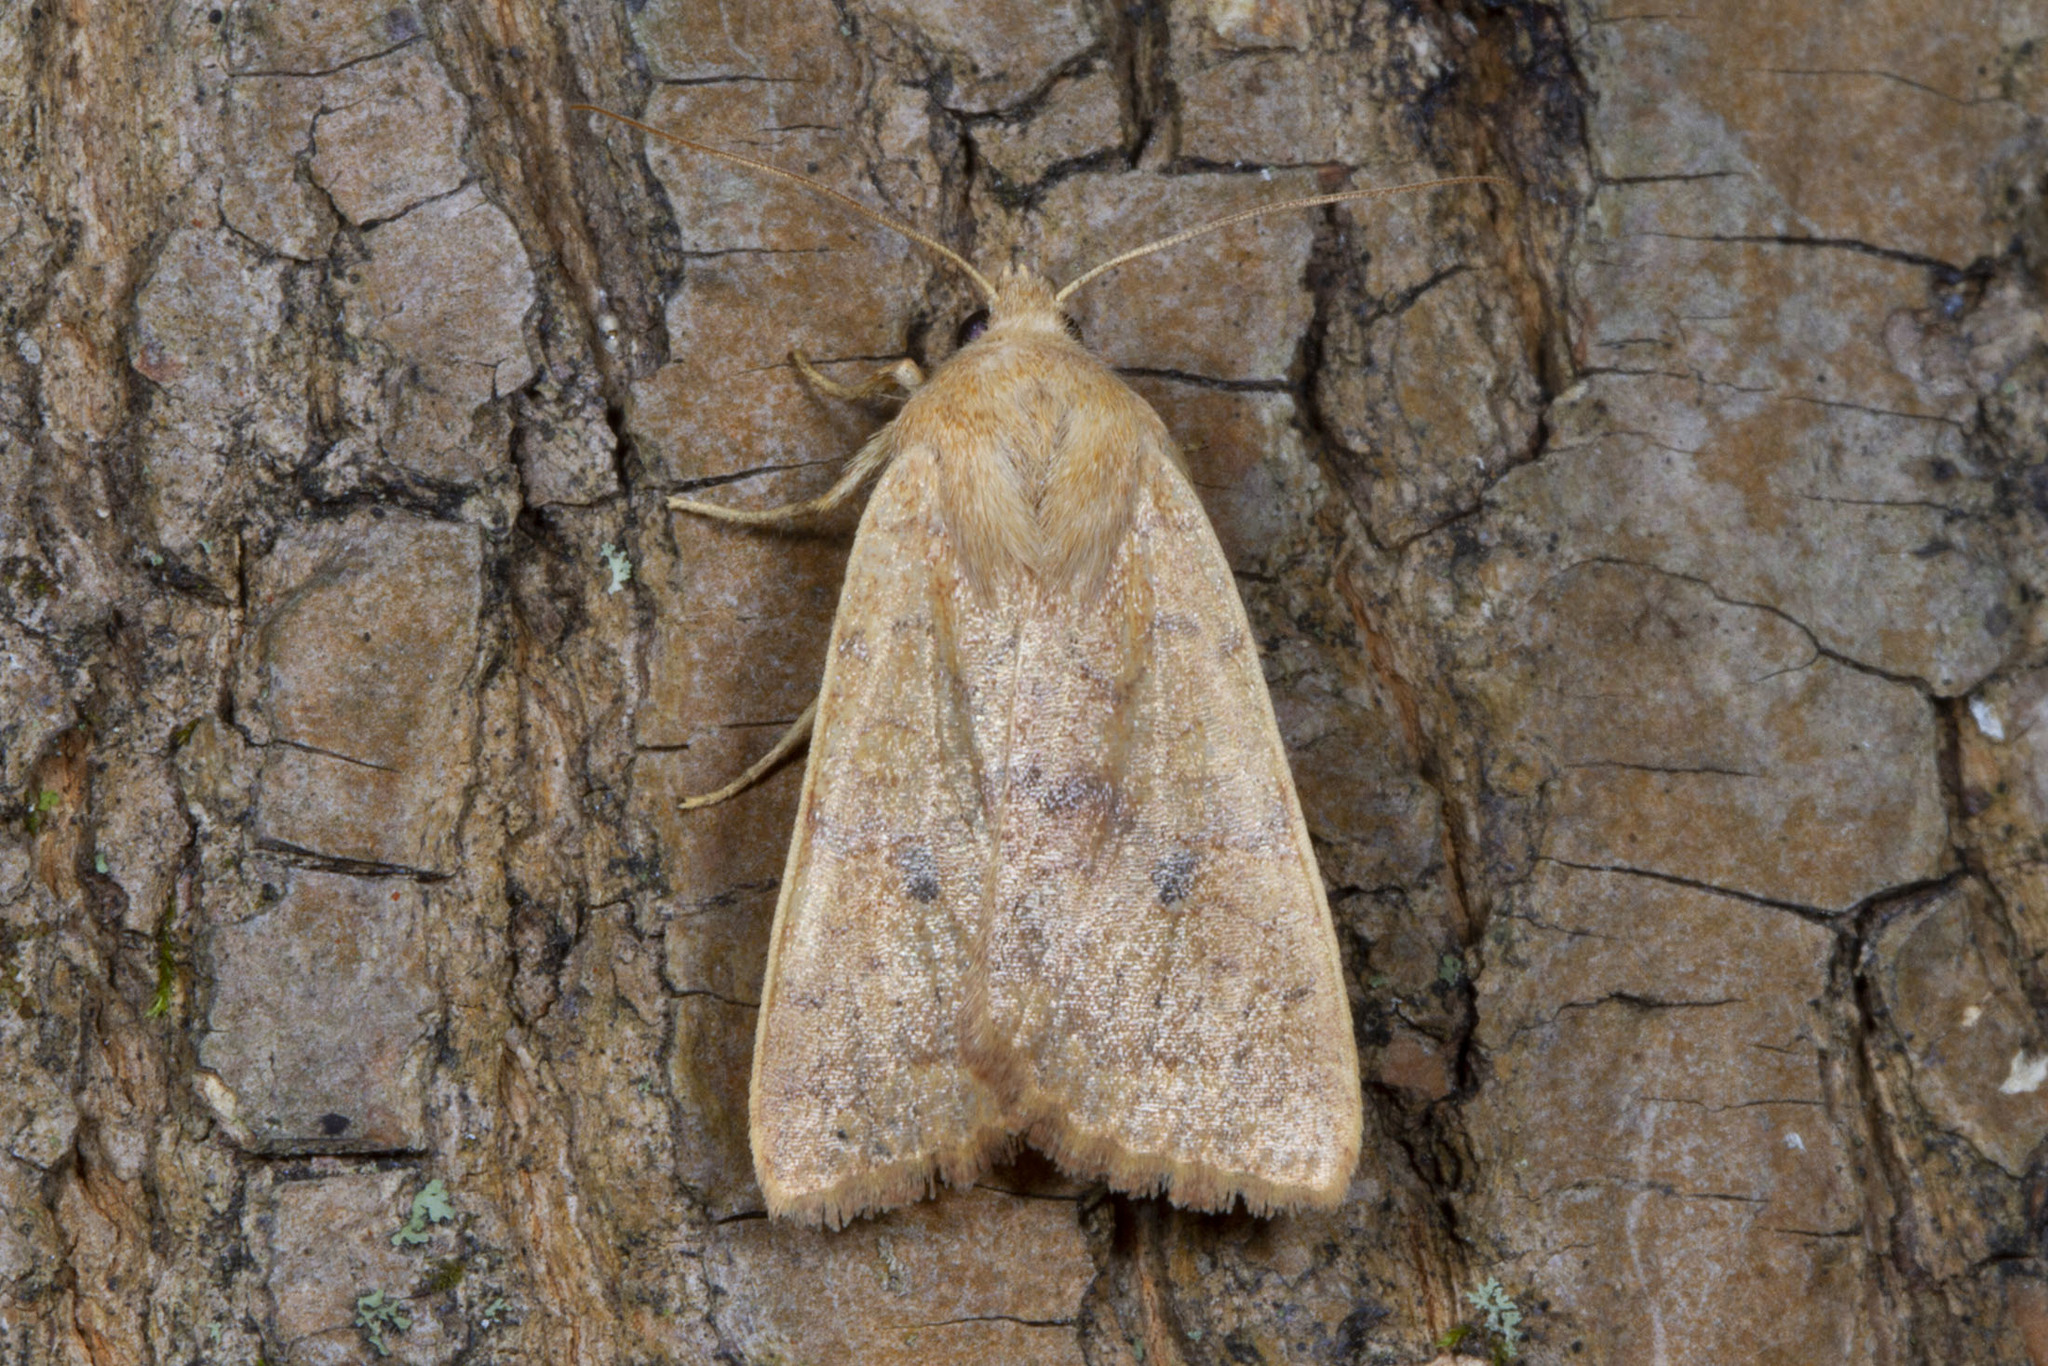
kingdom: Animalia
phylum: Arthropoda
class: Insecta
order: Lepidoptera
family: Noctuidae
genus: Agrochola
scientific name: Agrochola bicolorago
